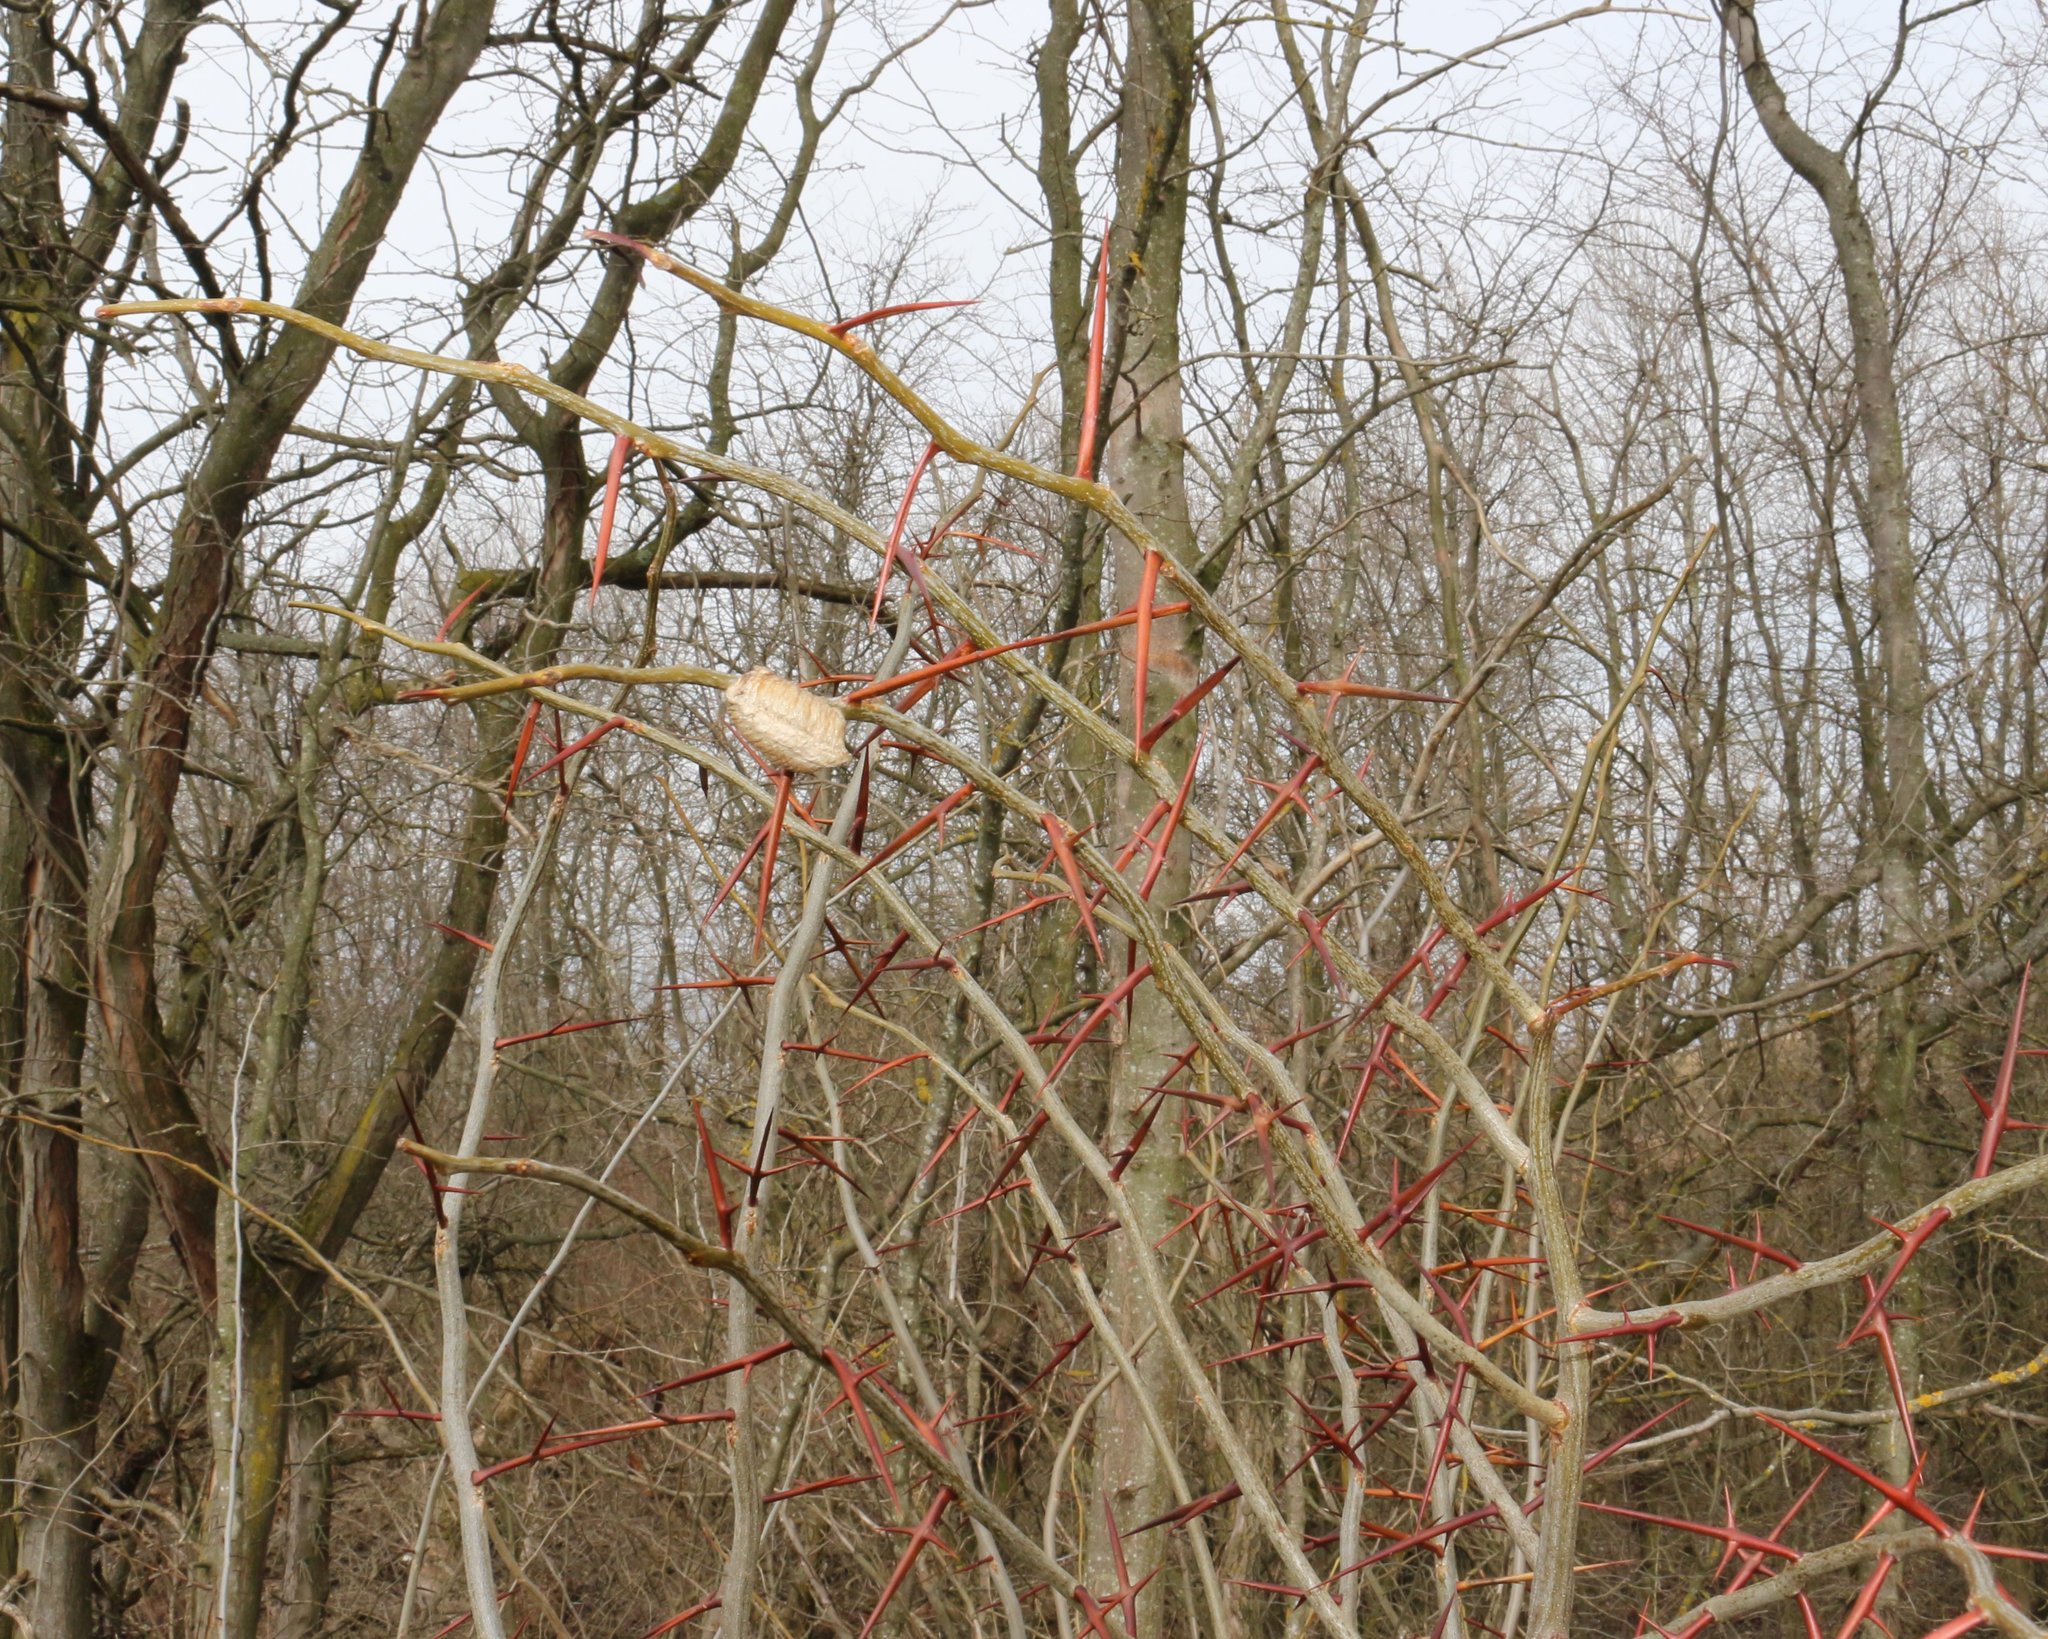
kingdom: Animalia
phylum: Arthropoda
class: Insecta
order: Mantodea
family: Mantidae
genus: Hierodula
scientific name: Hierodula transcaucasica
